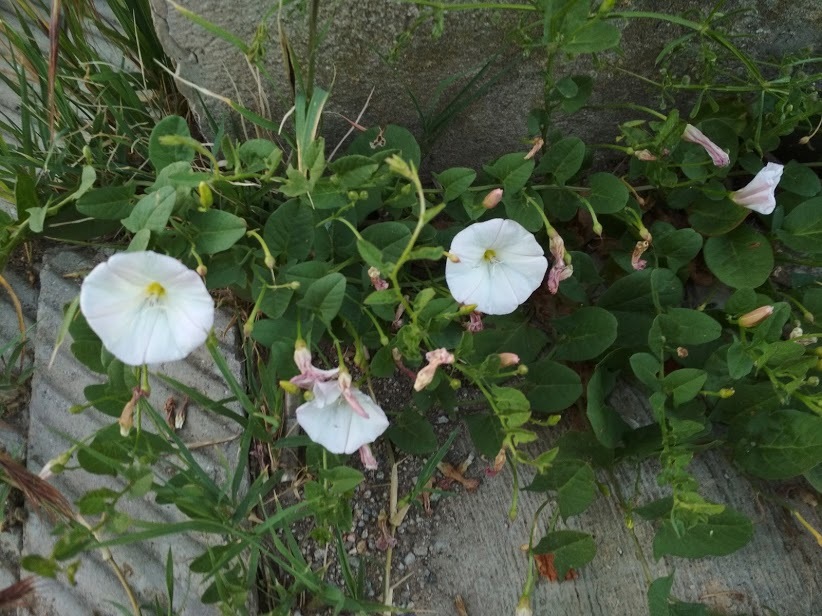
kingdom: Plantae
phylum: Tracheophyta
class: Magnoliopsida
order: Solanales
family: Convolvulaceae
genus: Convolvulus
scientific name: Convolvulus arvensis
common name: Field bindweed
